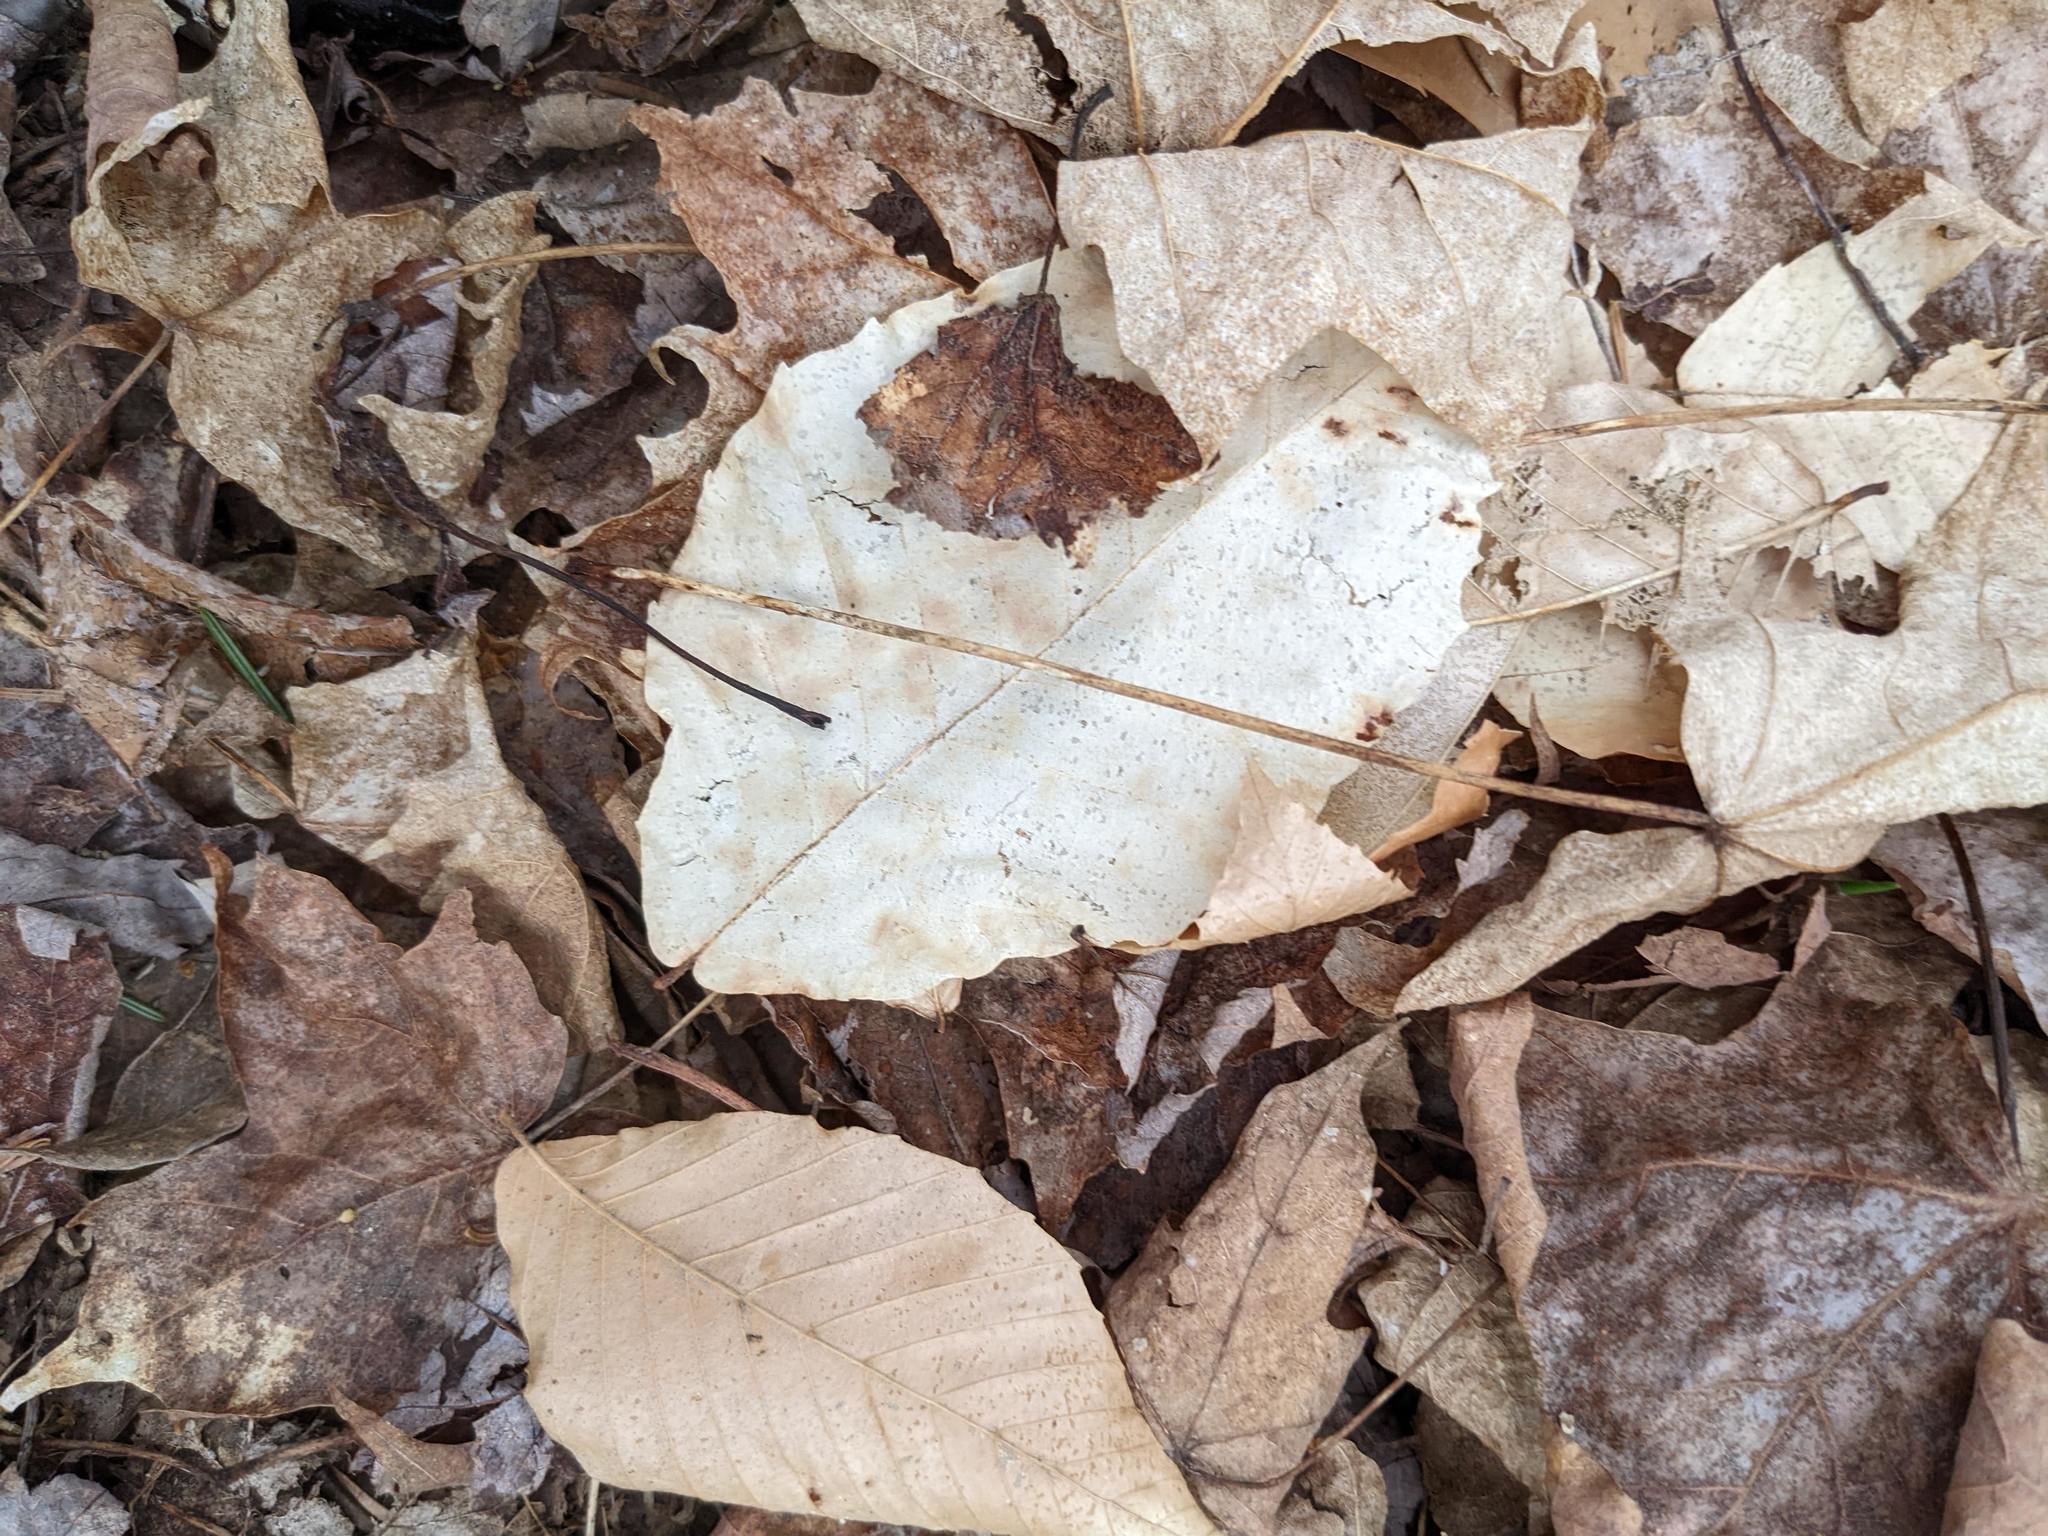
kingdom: Plantae
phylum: Tracheophyta
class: Magnoliopsida
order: Fagales
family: Fagaceae
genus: Fagus
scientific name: Fagus grandifolia
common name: American beech
